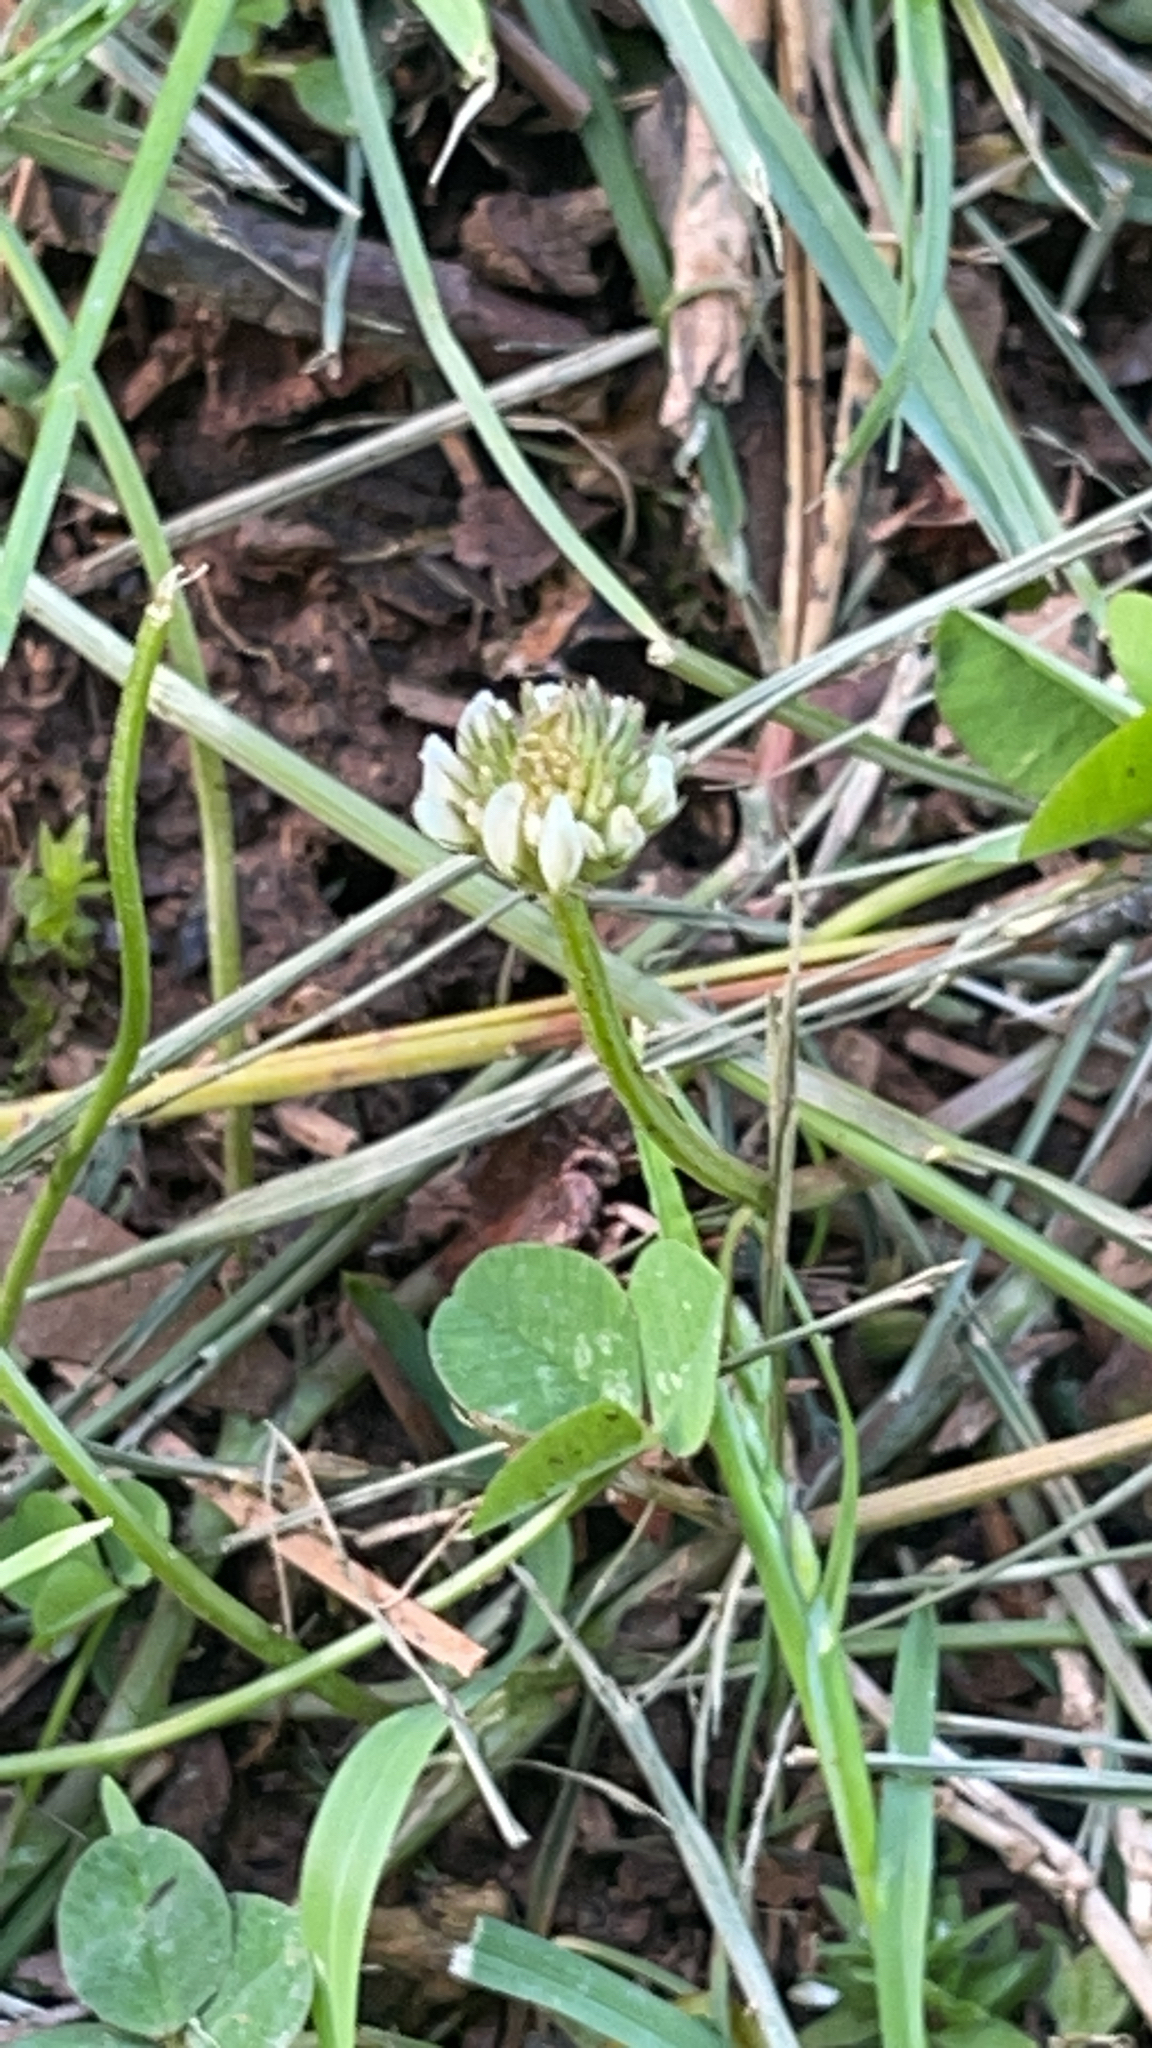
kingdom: Plantae
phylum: Tracheophyta
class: Magnoliopsida
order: Fabales
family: Fabaceae
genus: Trifolium
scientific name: Trifolium repens
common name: White clover
